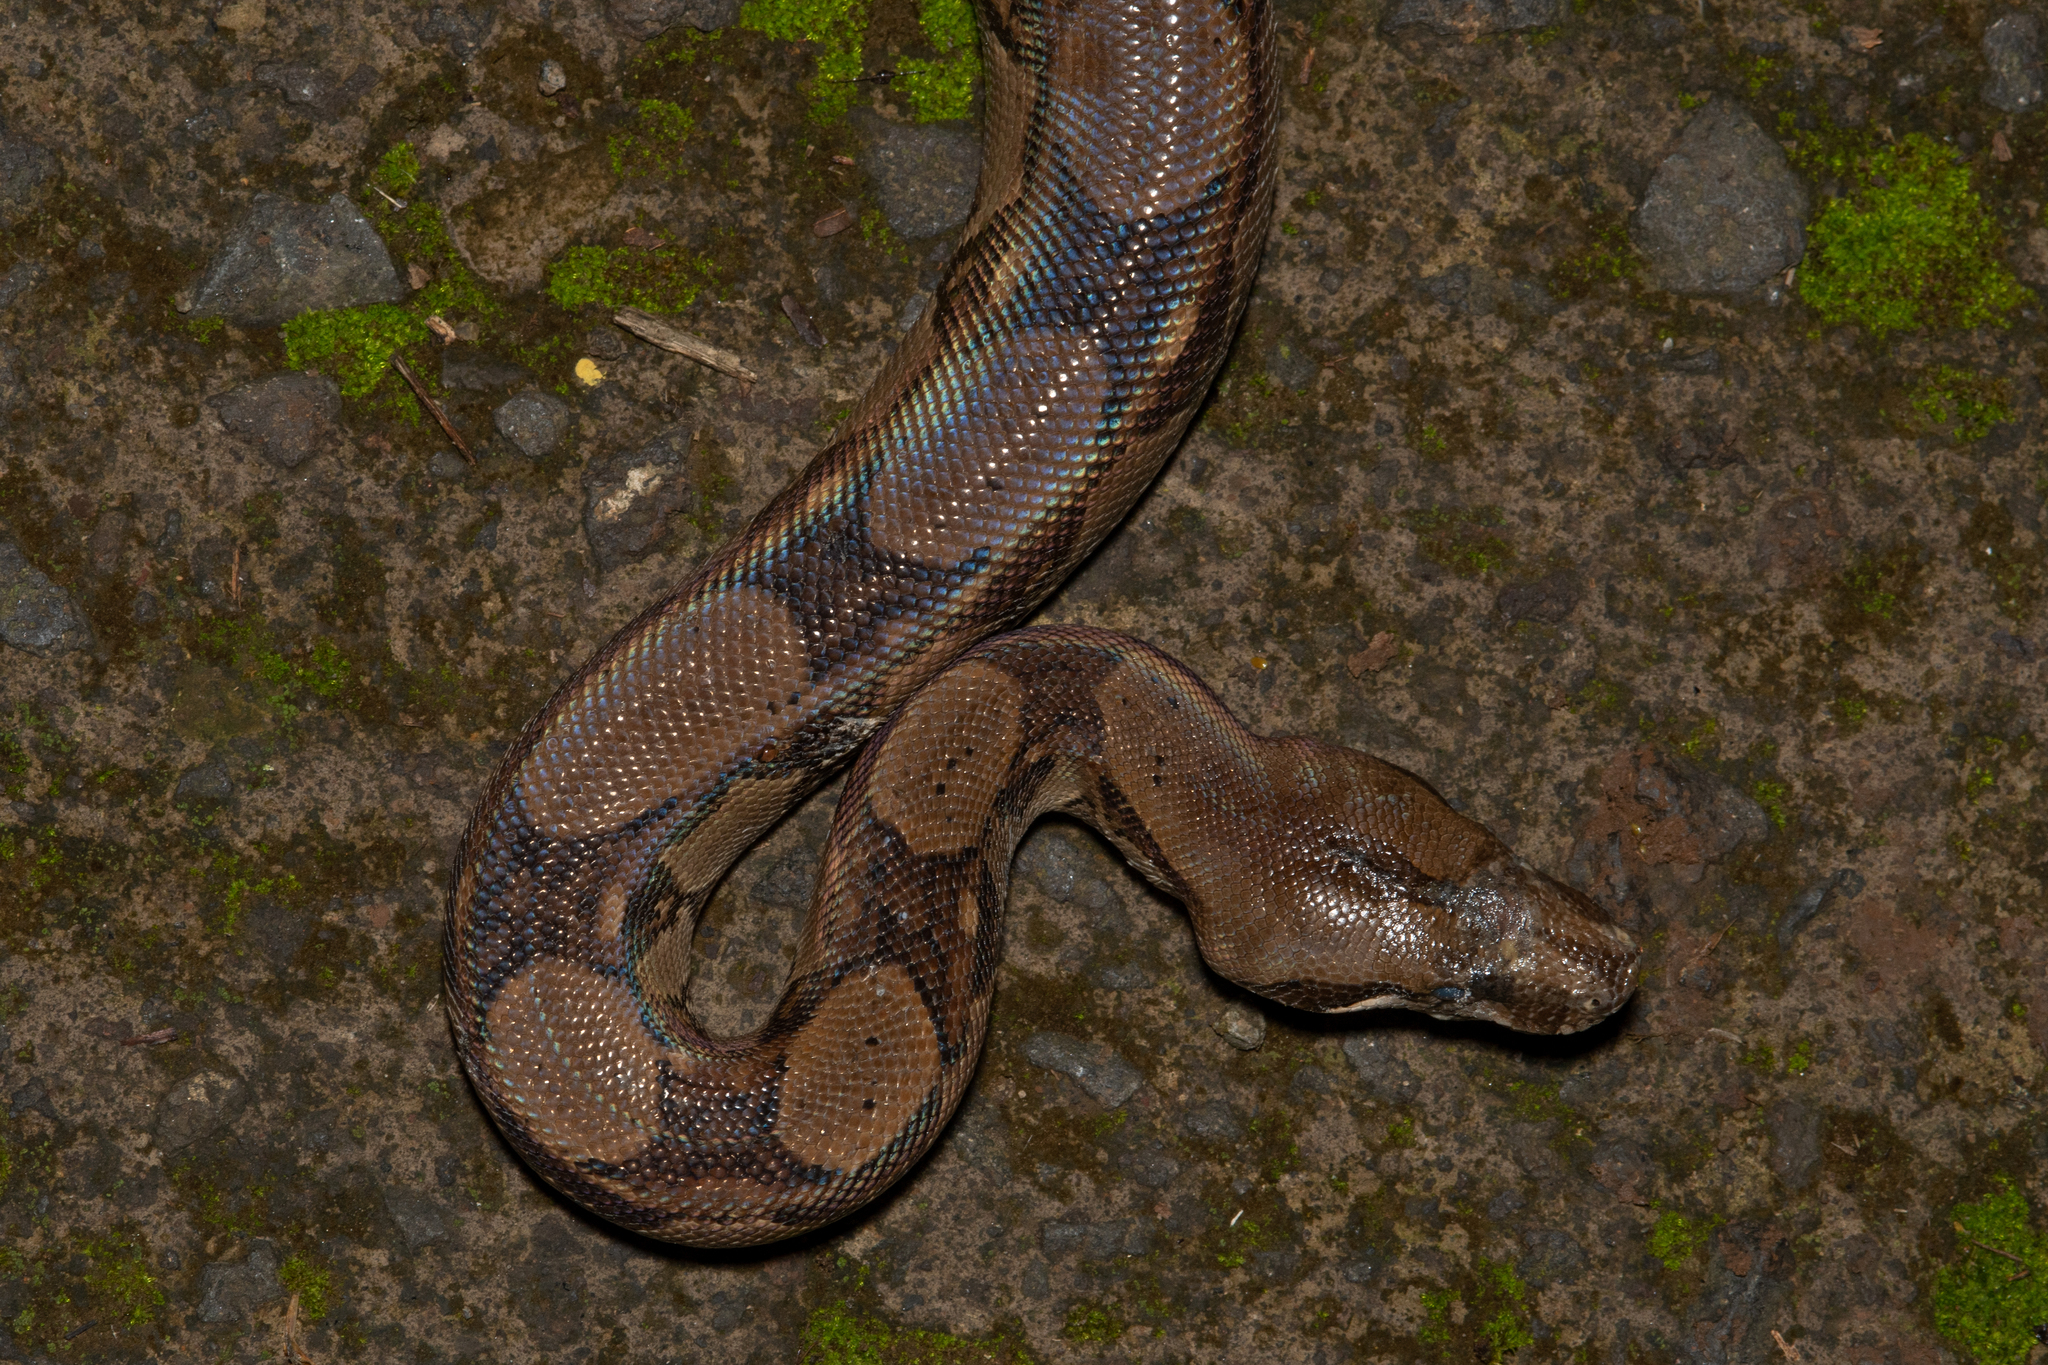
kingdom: Animalia
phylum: Chordata
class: Squamata
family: Boidae
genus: Boa
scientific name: Boa imperator
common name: Central american boa
